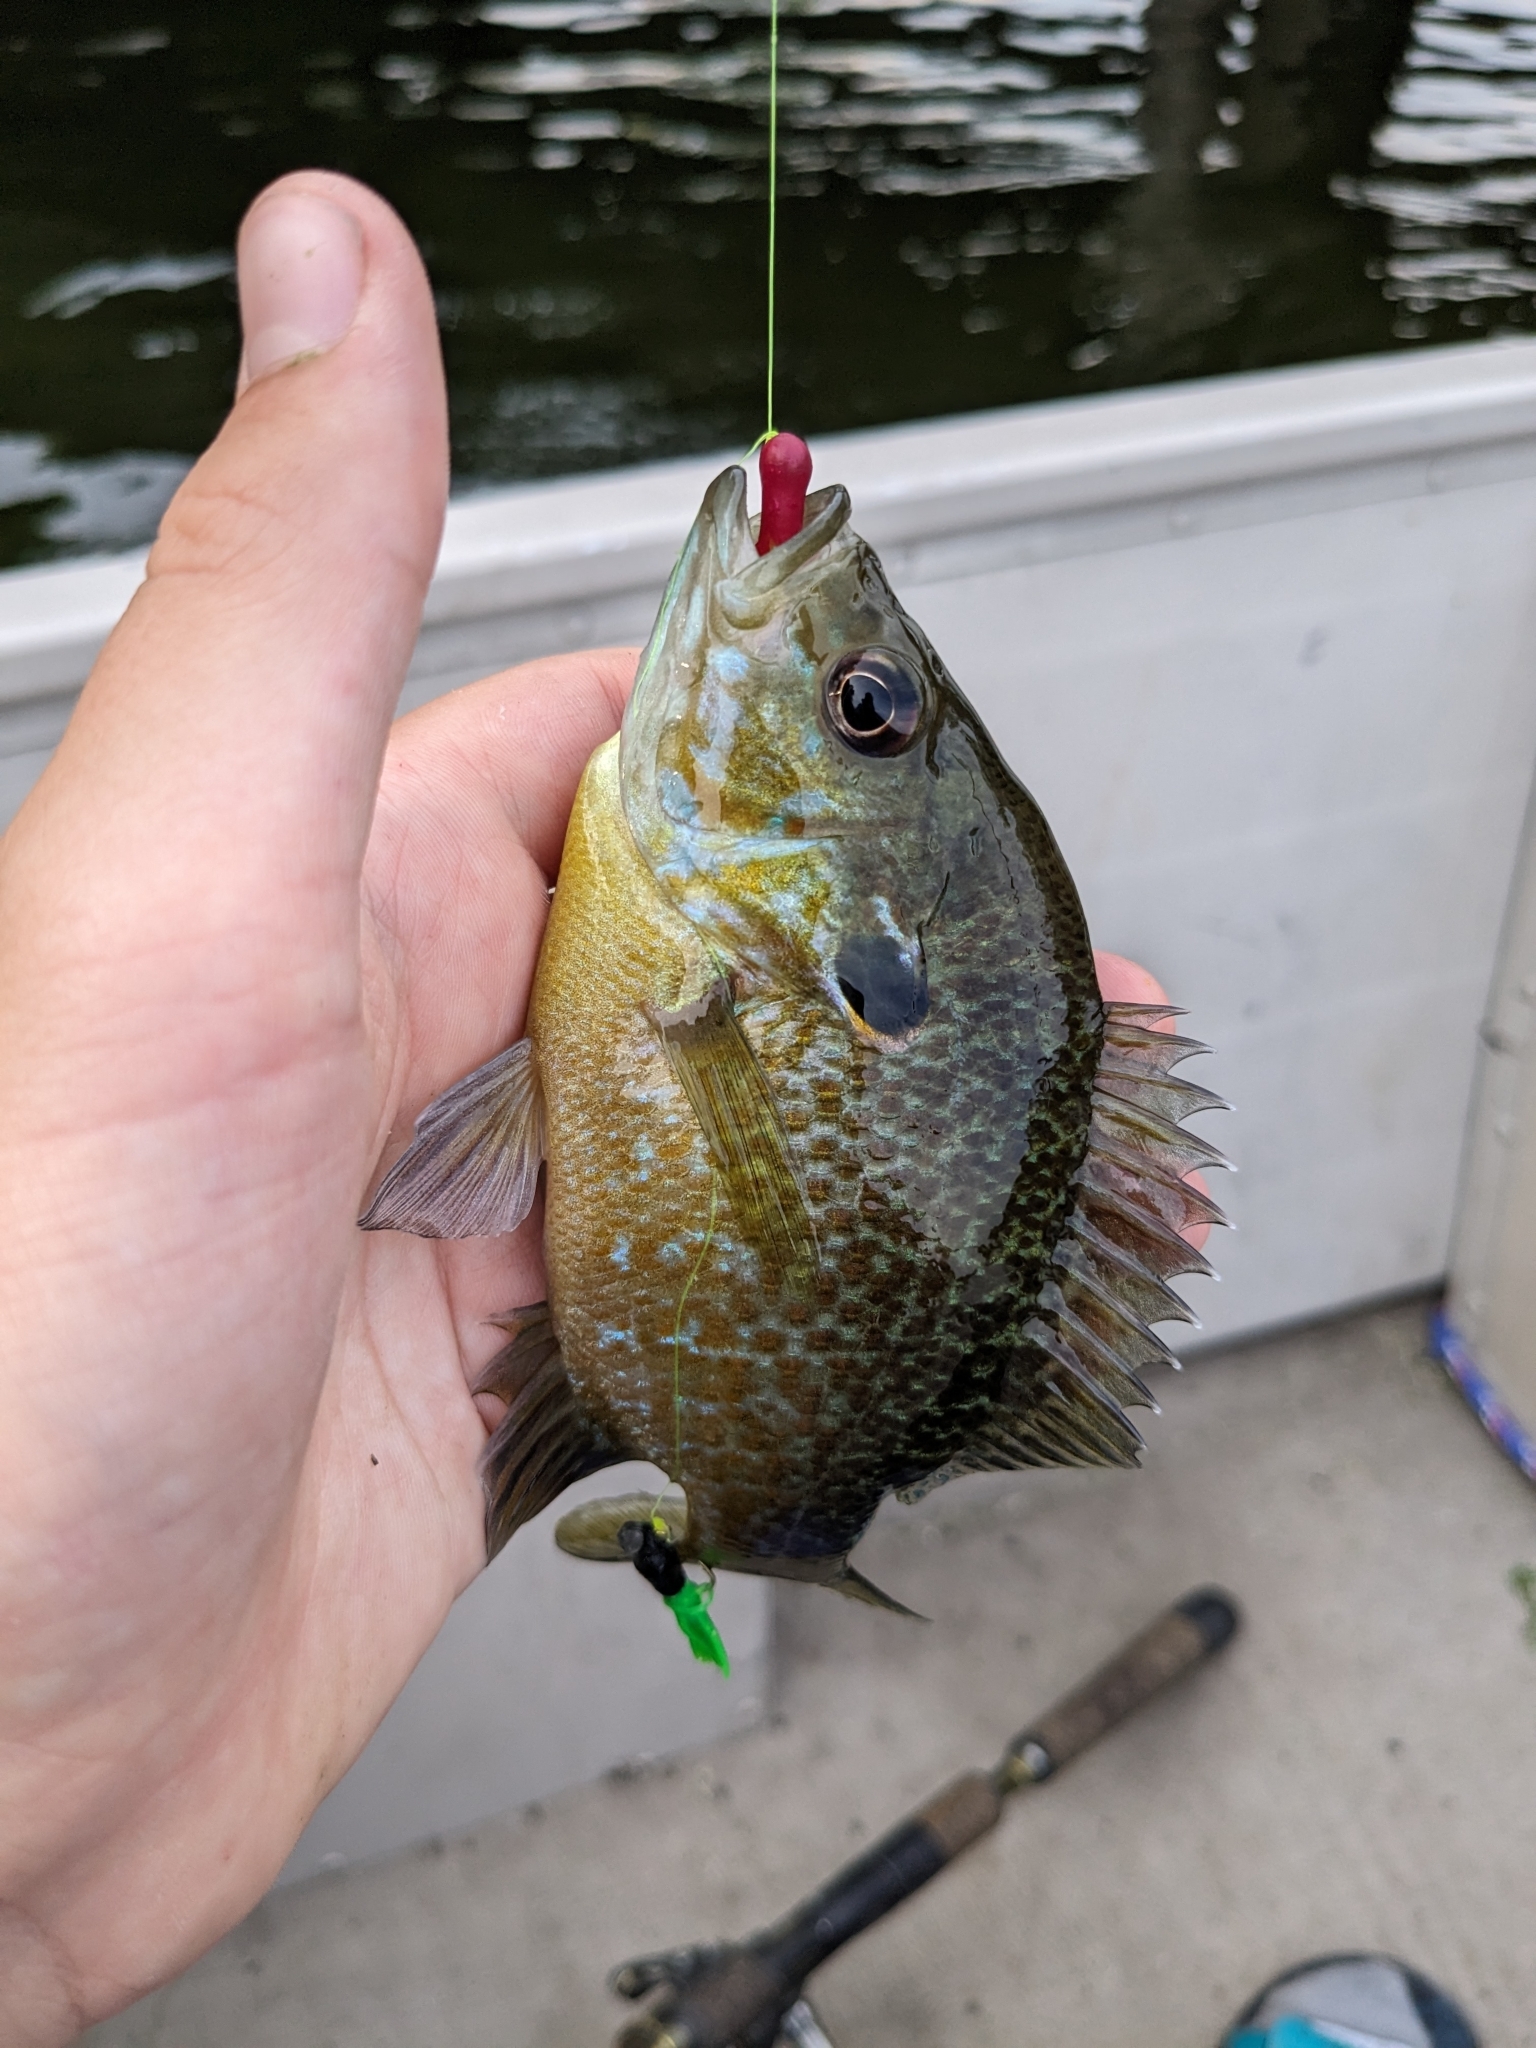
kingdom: Animalia
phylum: Chordata
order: Perciformes
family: Centrarchidae
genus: Lepomis
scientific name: Lepomis
